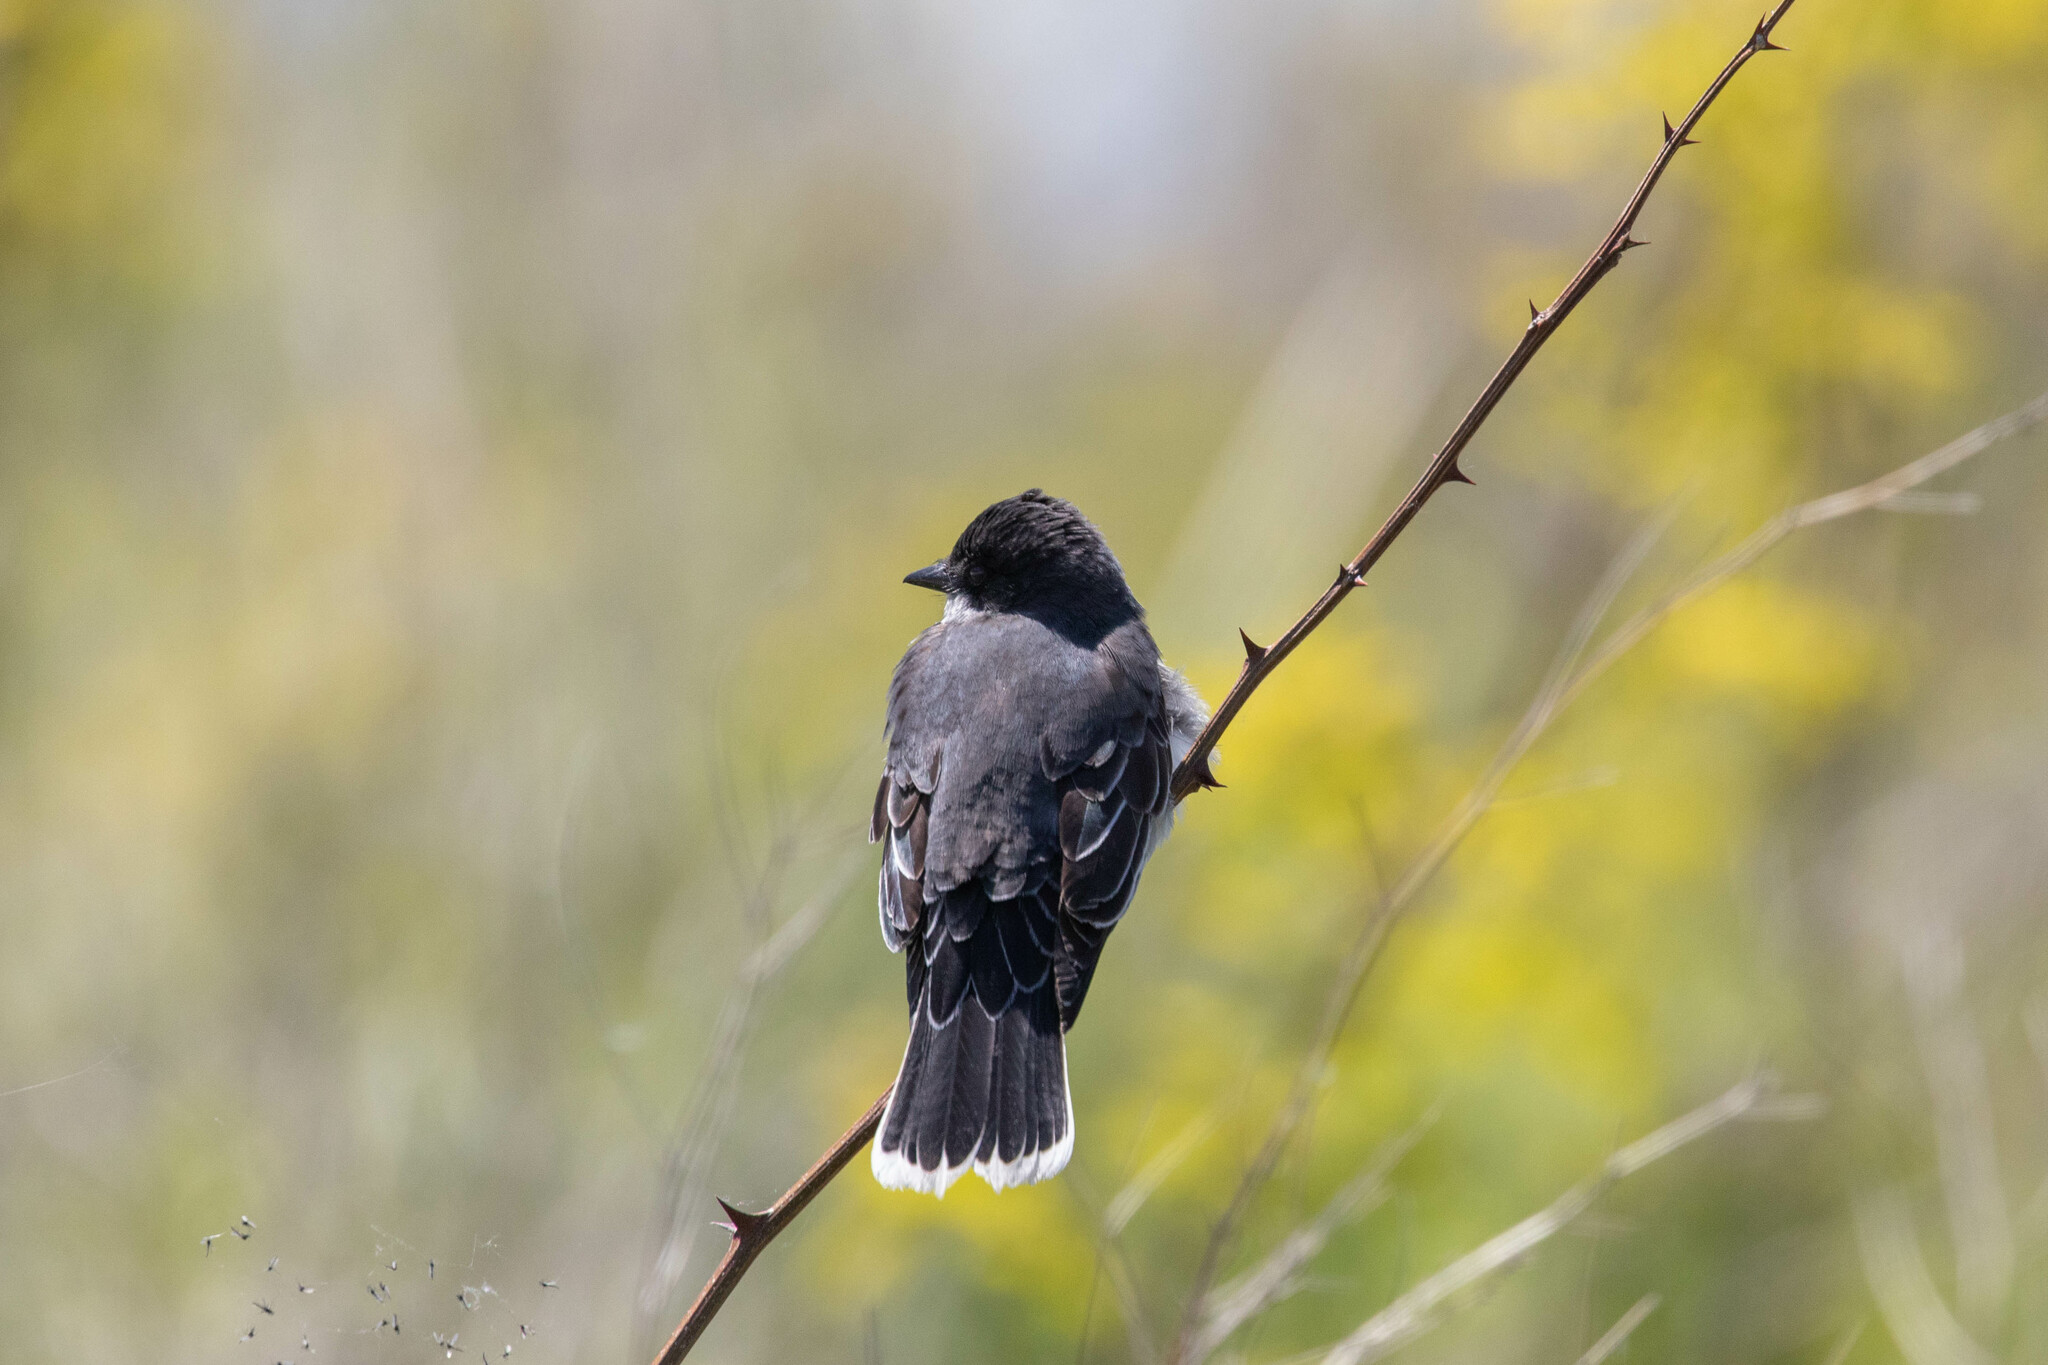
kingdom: Animalia
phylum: Chordata
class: Aves
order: Passeriformes
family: Tyrannidae
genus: Tyrannus
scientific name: Tyrannus tyrannus
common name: Eastern kingbird
